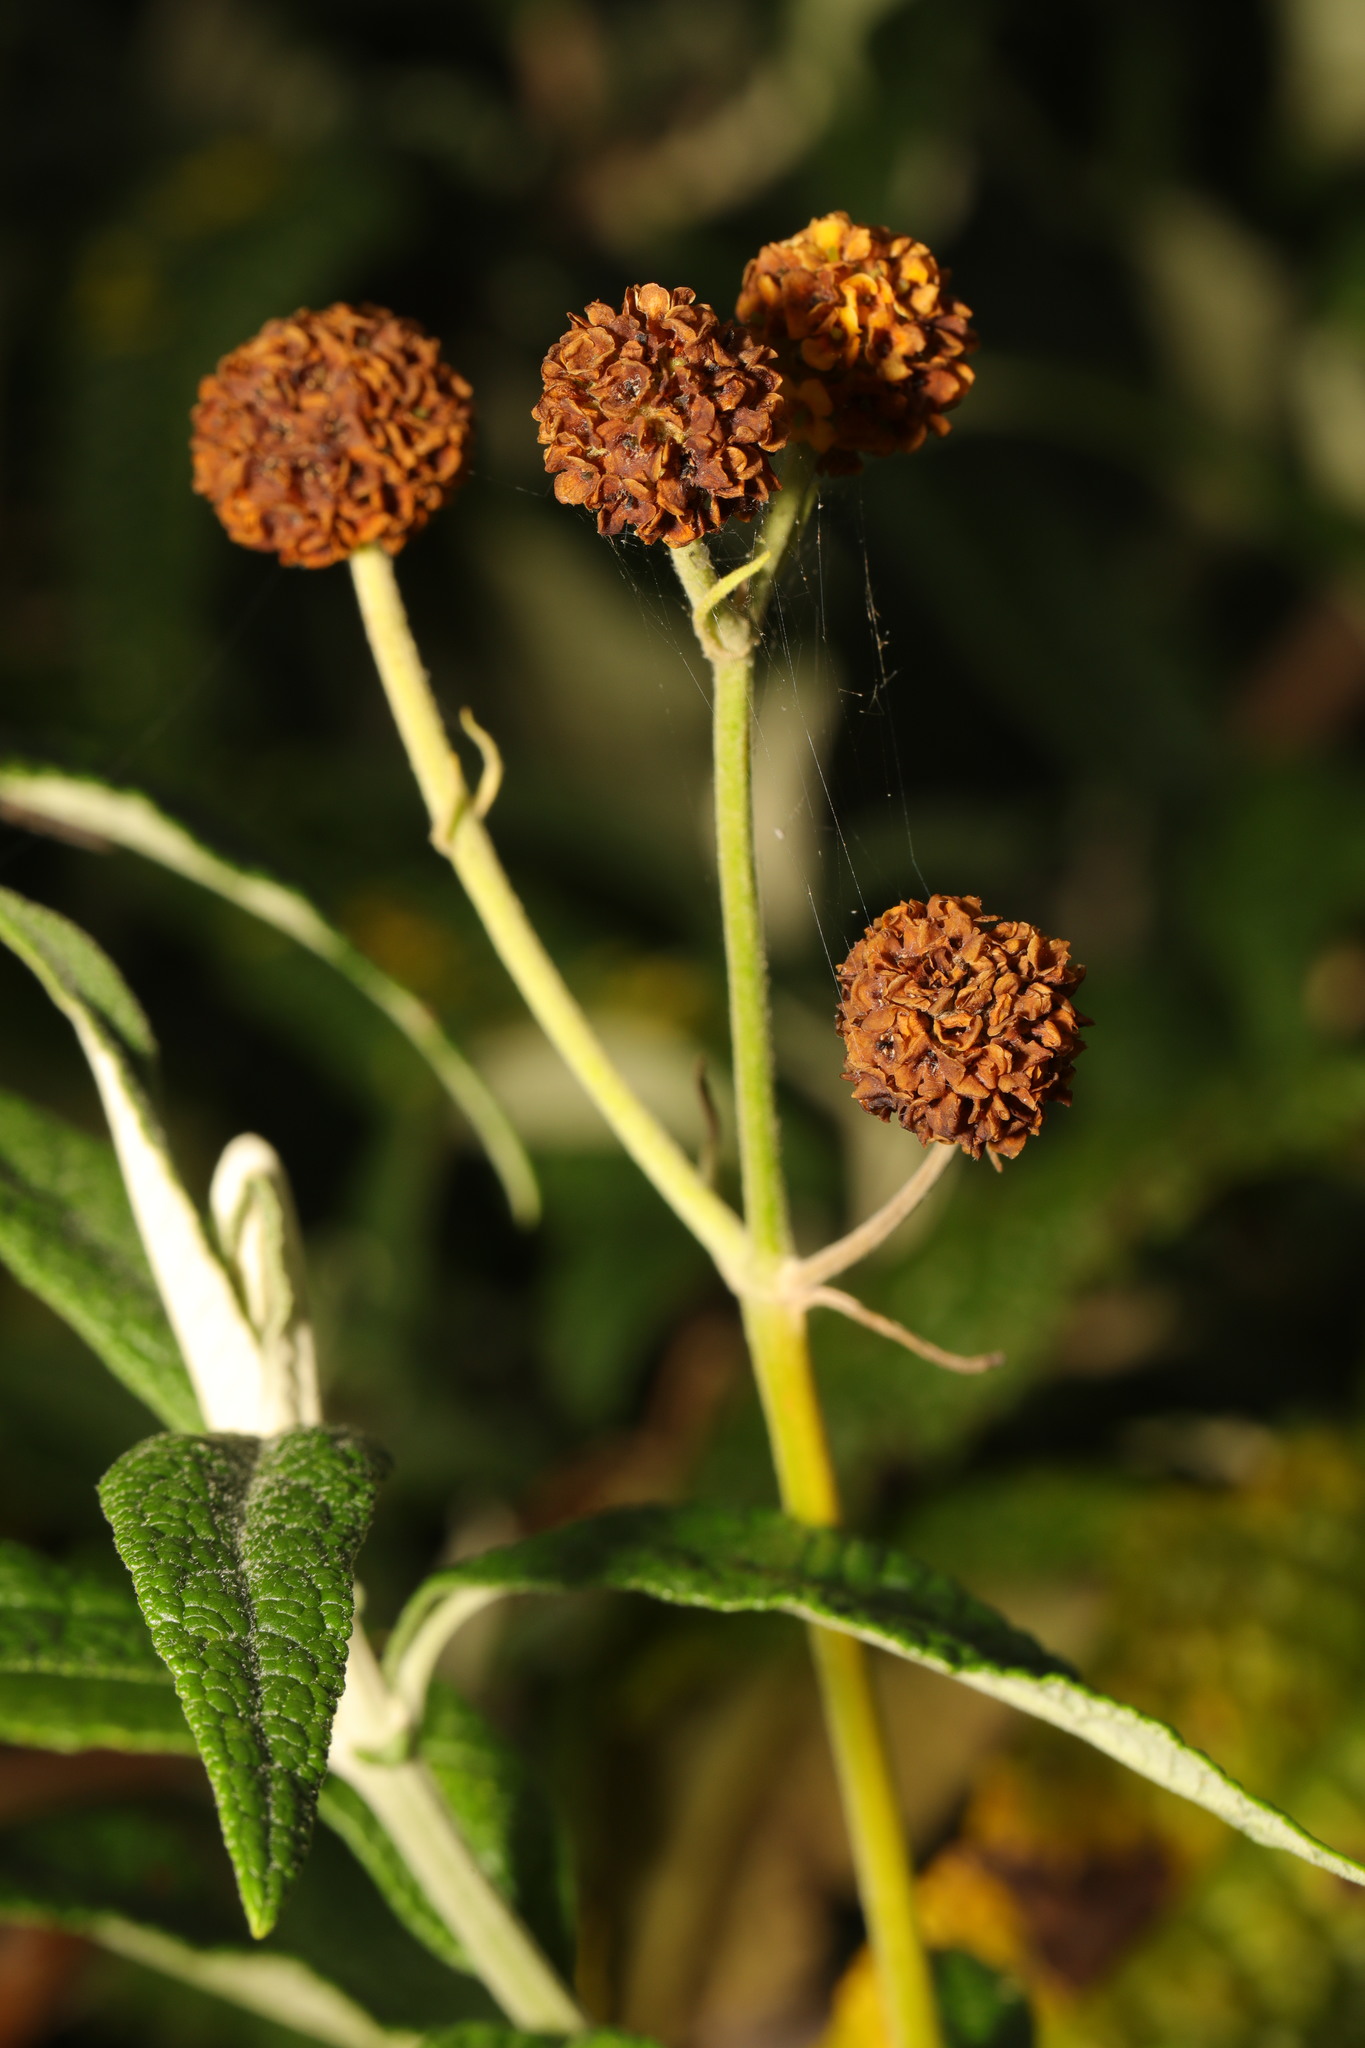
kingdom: Plantae
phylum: Tracheophyta
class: Magnoliopsida
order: Lamiales
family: Scrophulariaceae
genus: Buddleja
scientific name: Buddleja globosa
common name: Orange-ball-tree
